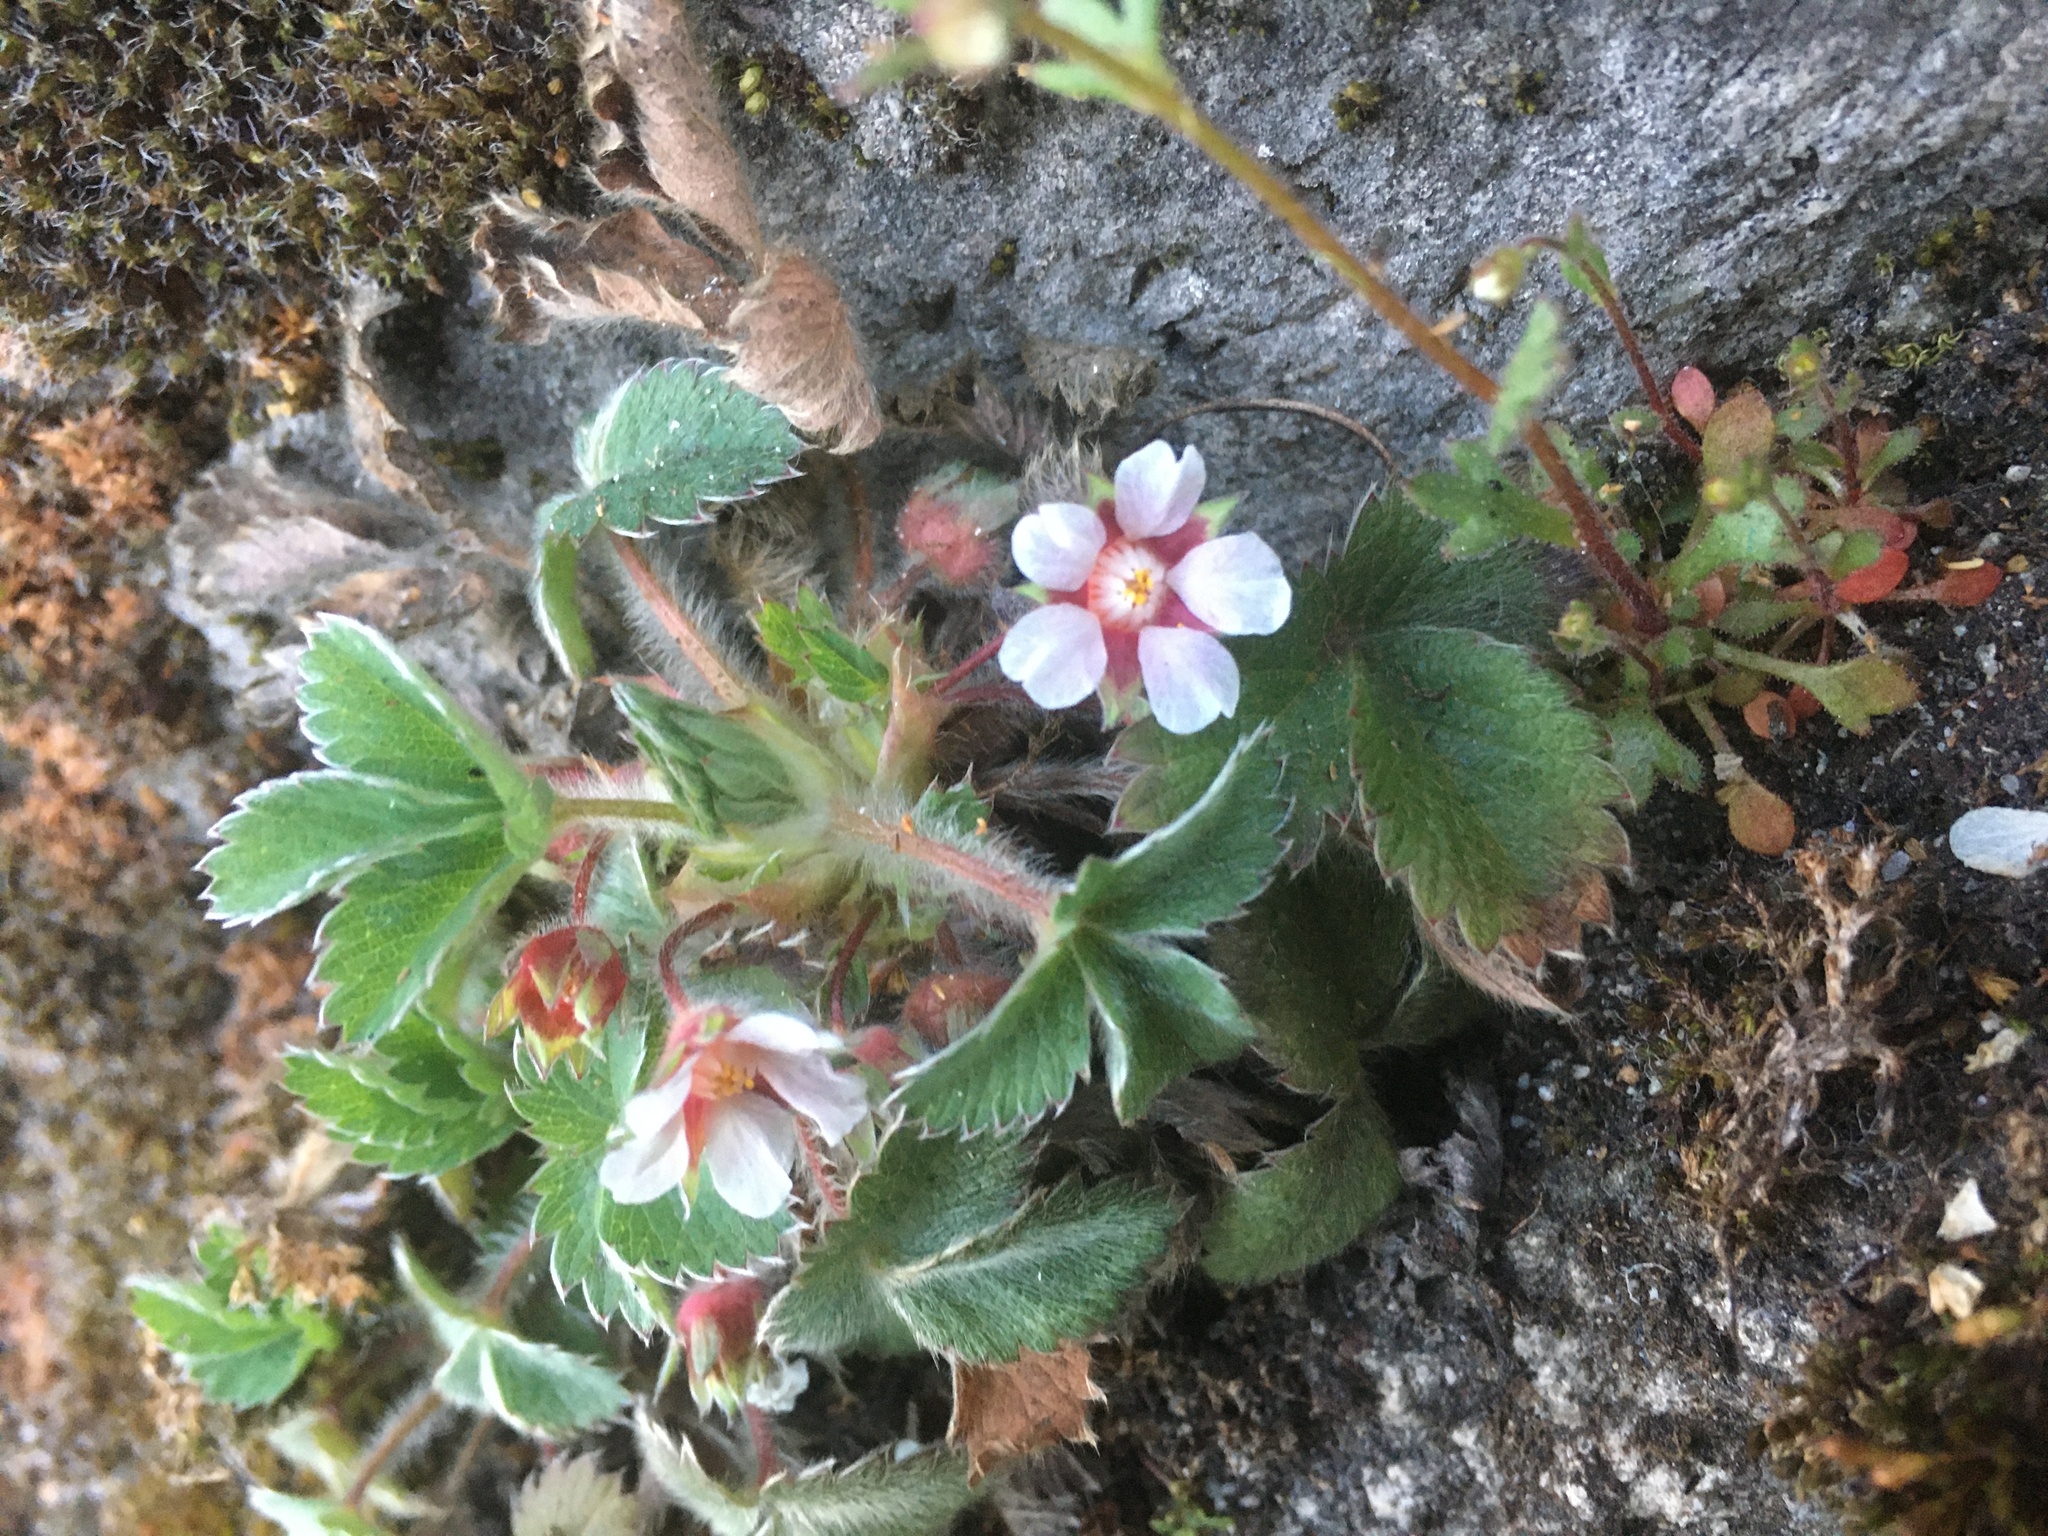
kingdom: Plantae
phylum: Tracheophyta
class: Magnoliopsida
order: Rosales
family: Rosaceae
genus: Potentilla
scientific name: Potentilla micrantha
